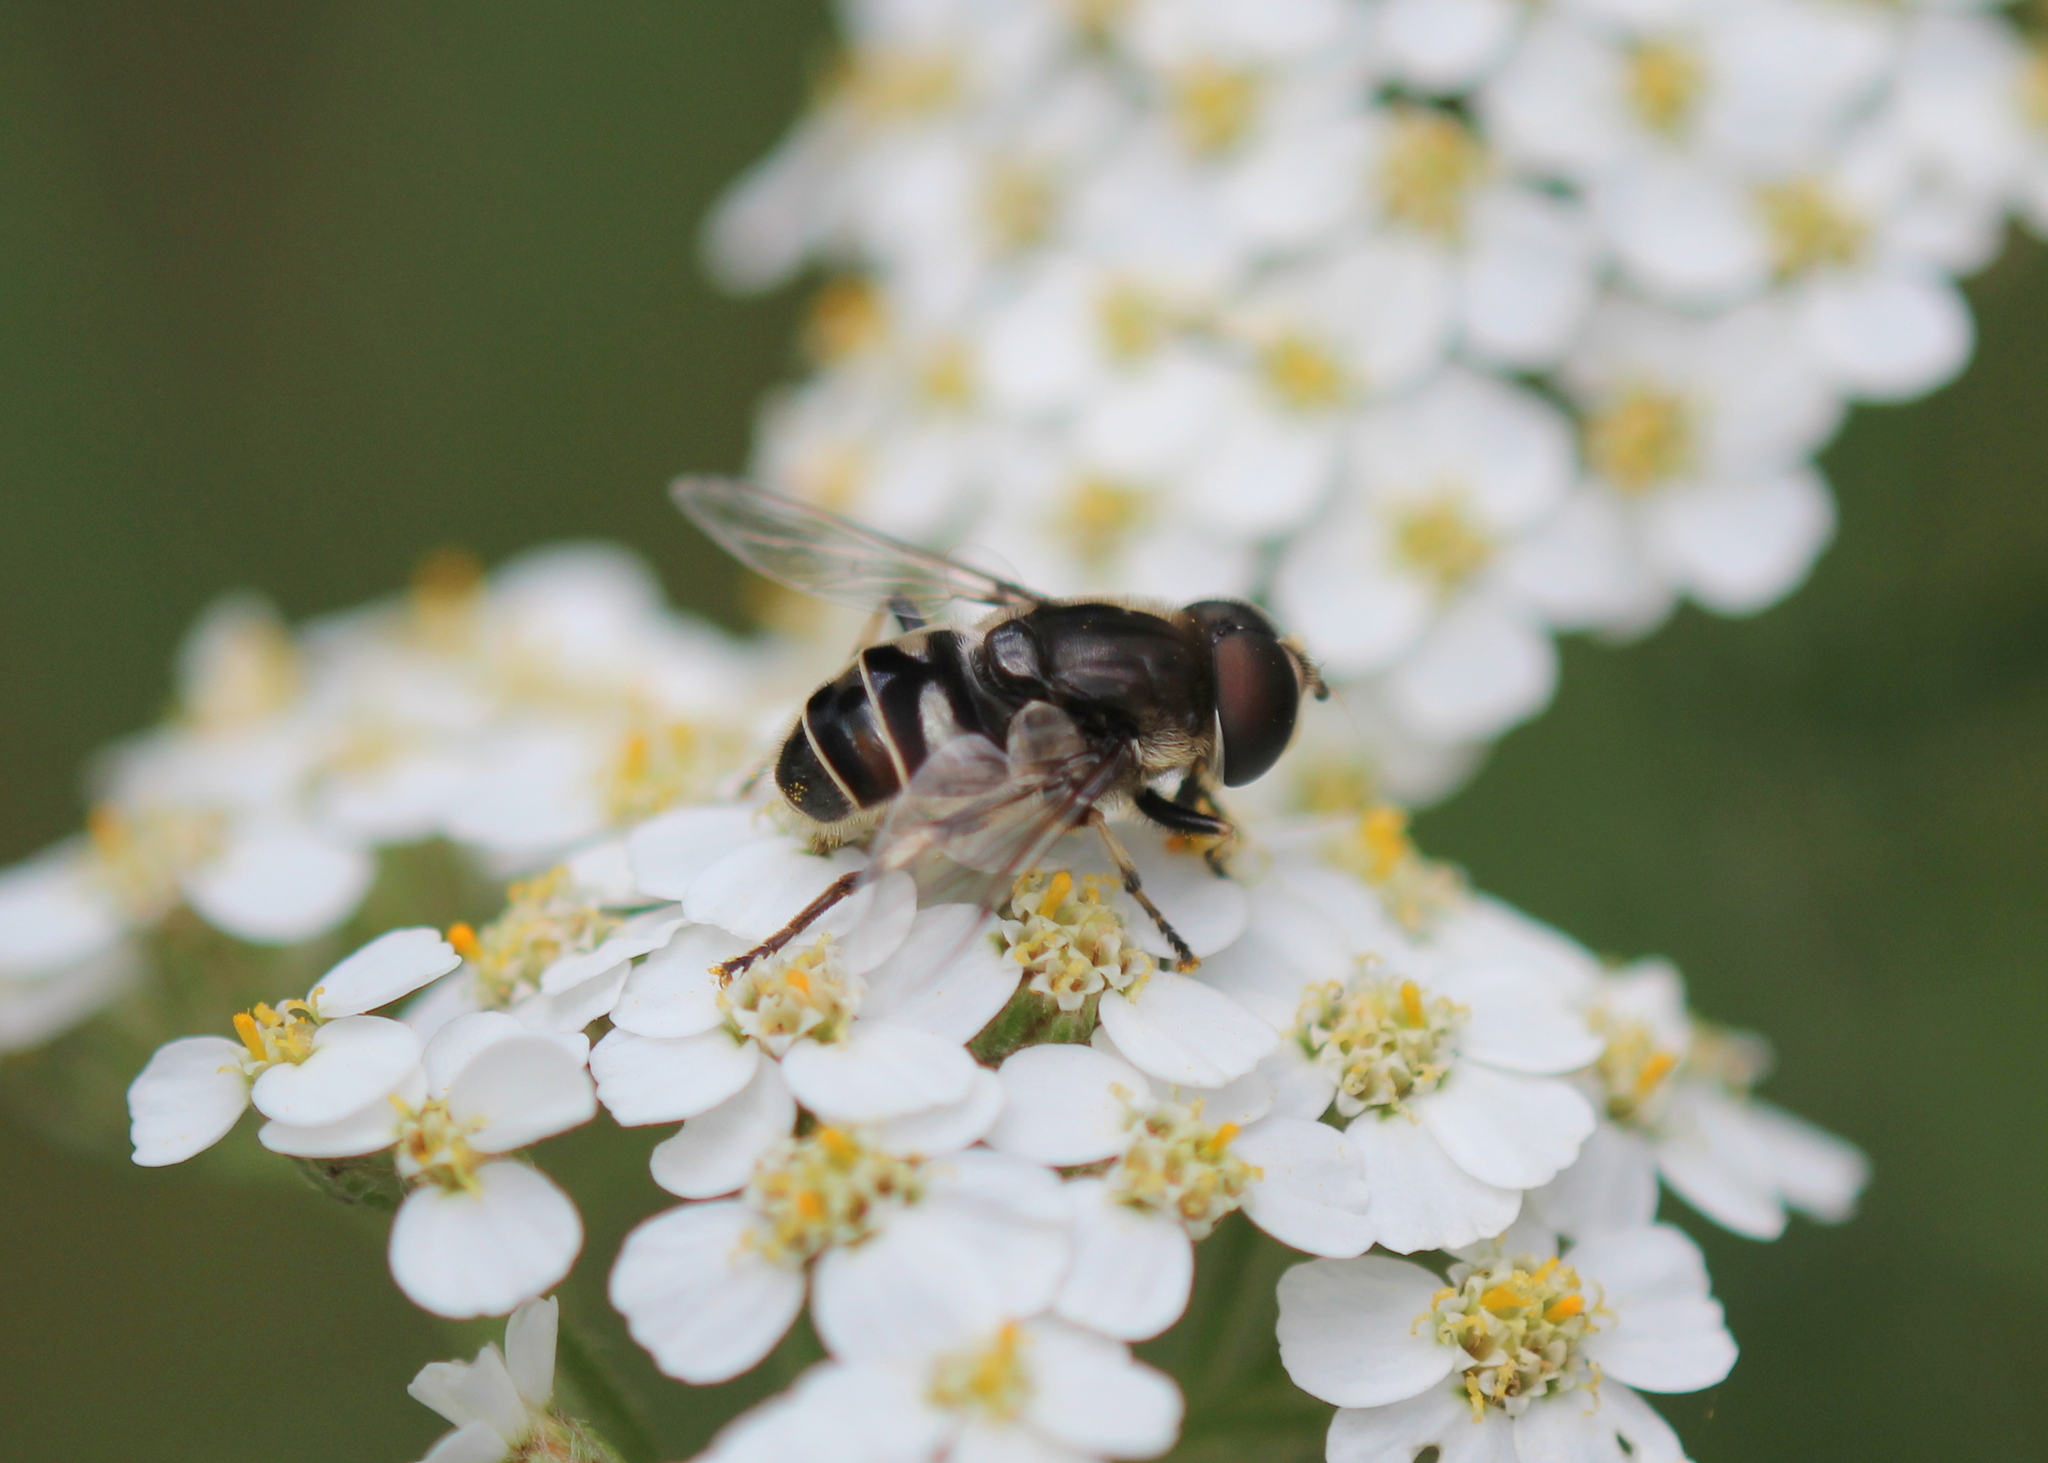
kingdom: Animalia
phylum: Arthropoda
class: Insecta
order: Diptera
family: Syrphidae
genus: Eristalis
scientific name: Eristalis dimidiata
